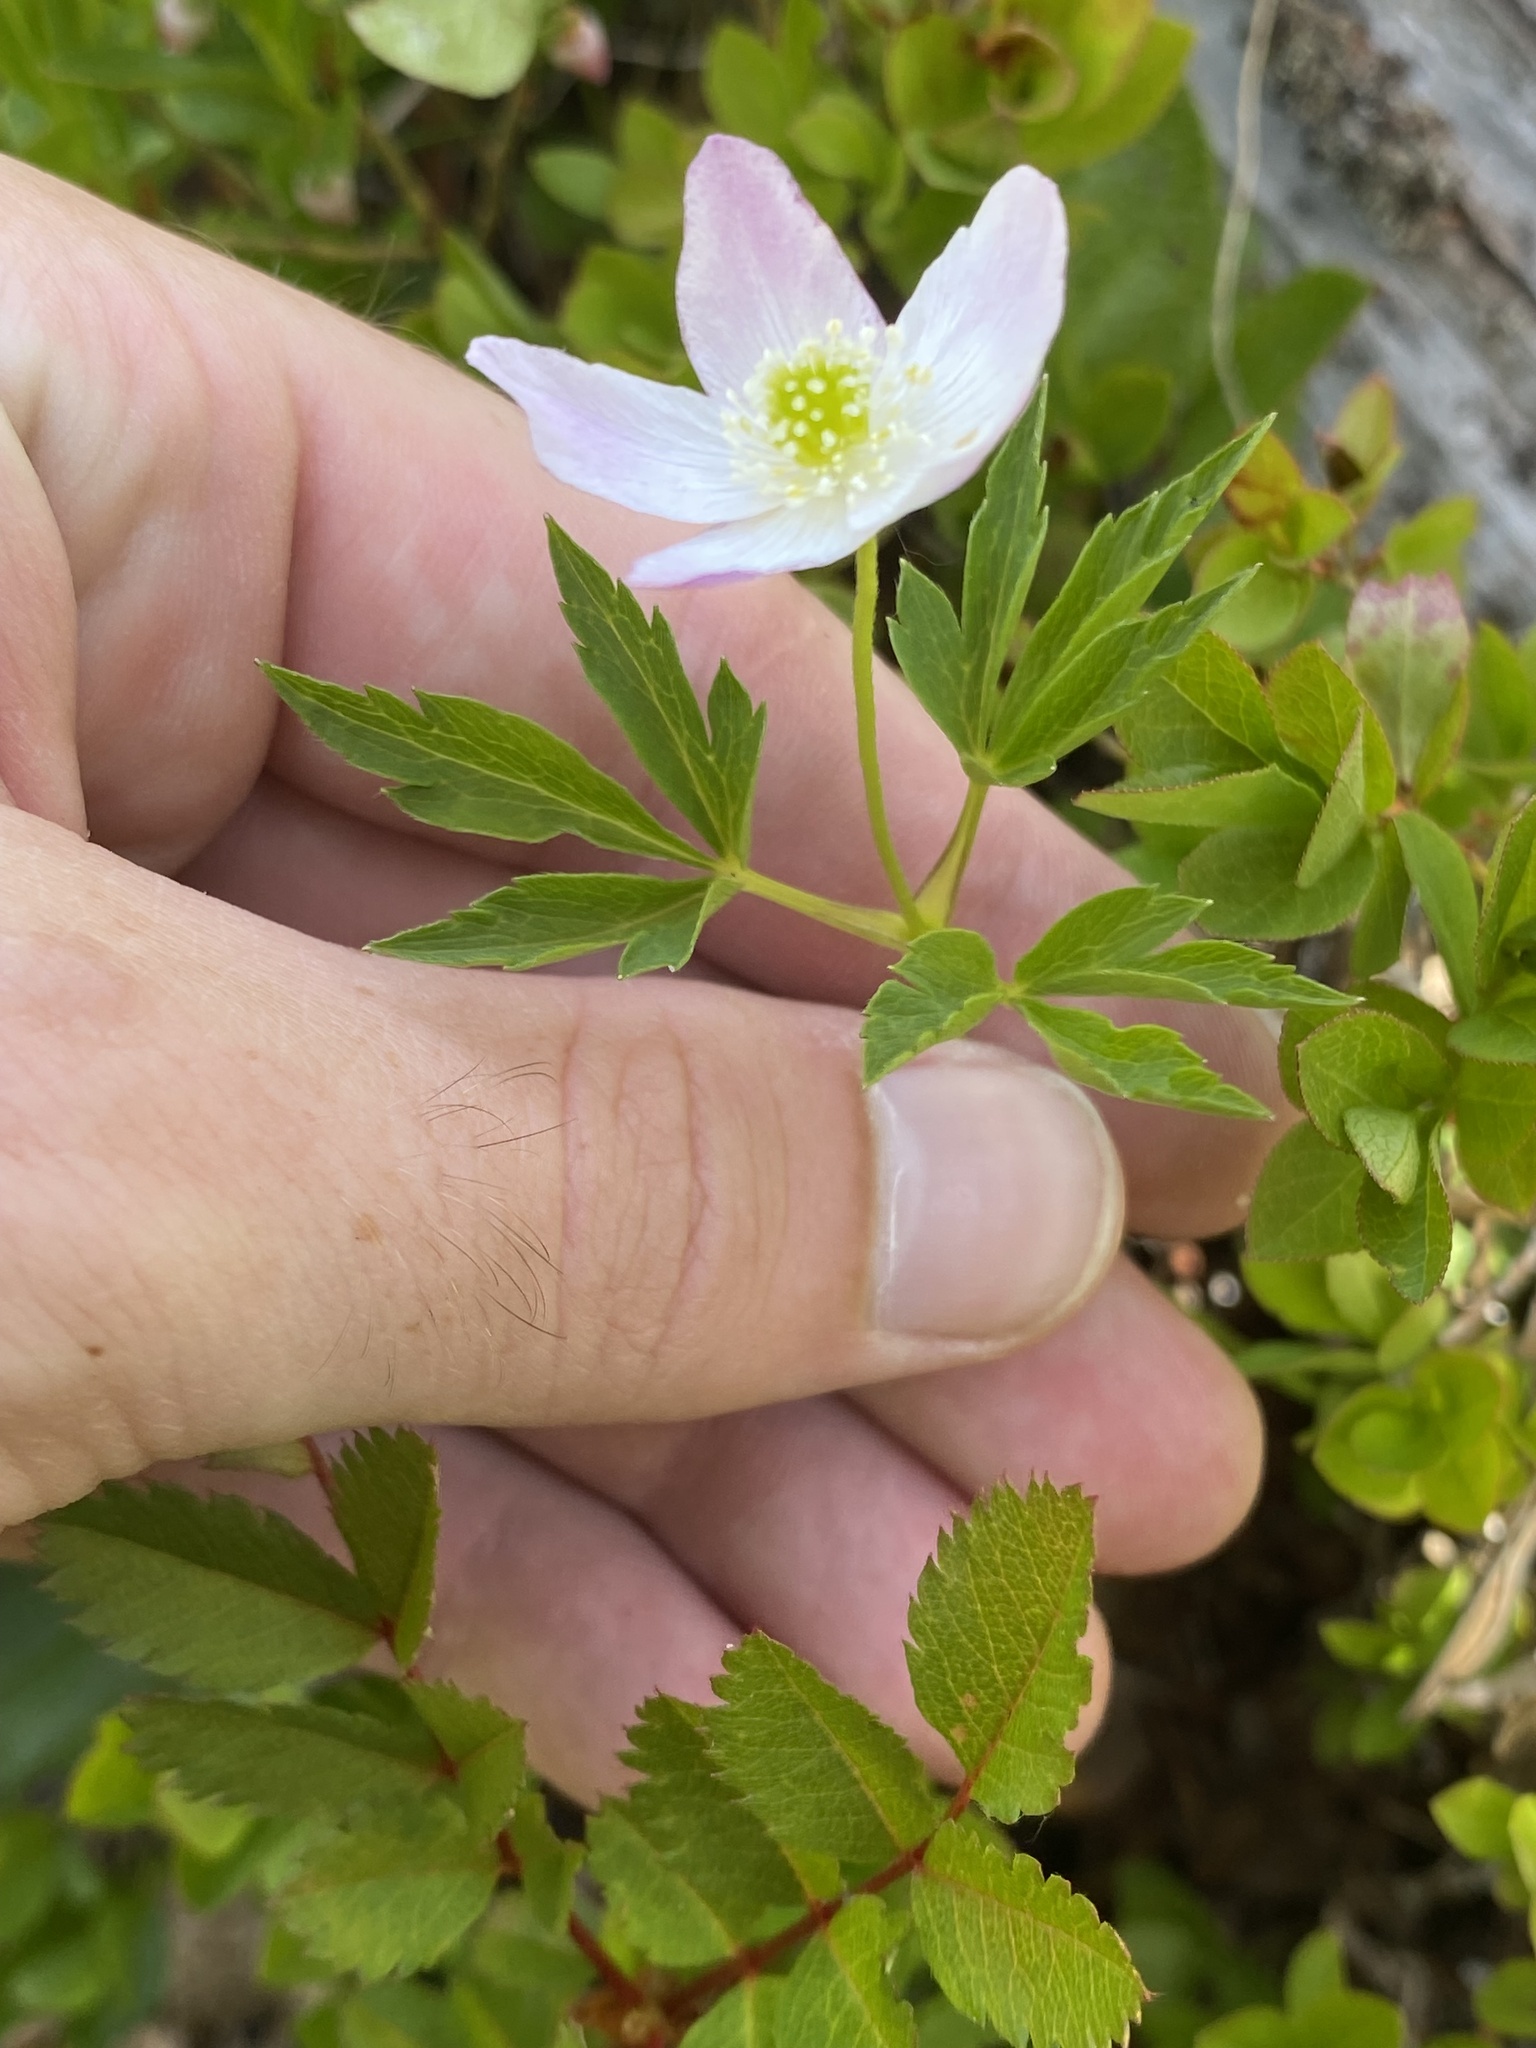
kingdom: Plantae
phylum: Tracheophyta
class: Magnoliopsida
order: Ranunculales
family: Ranunculaceae
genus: Anemone
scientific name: Anemone oregana
